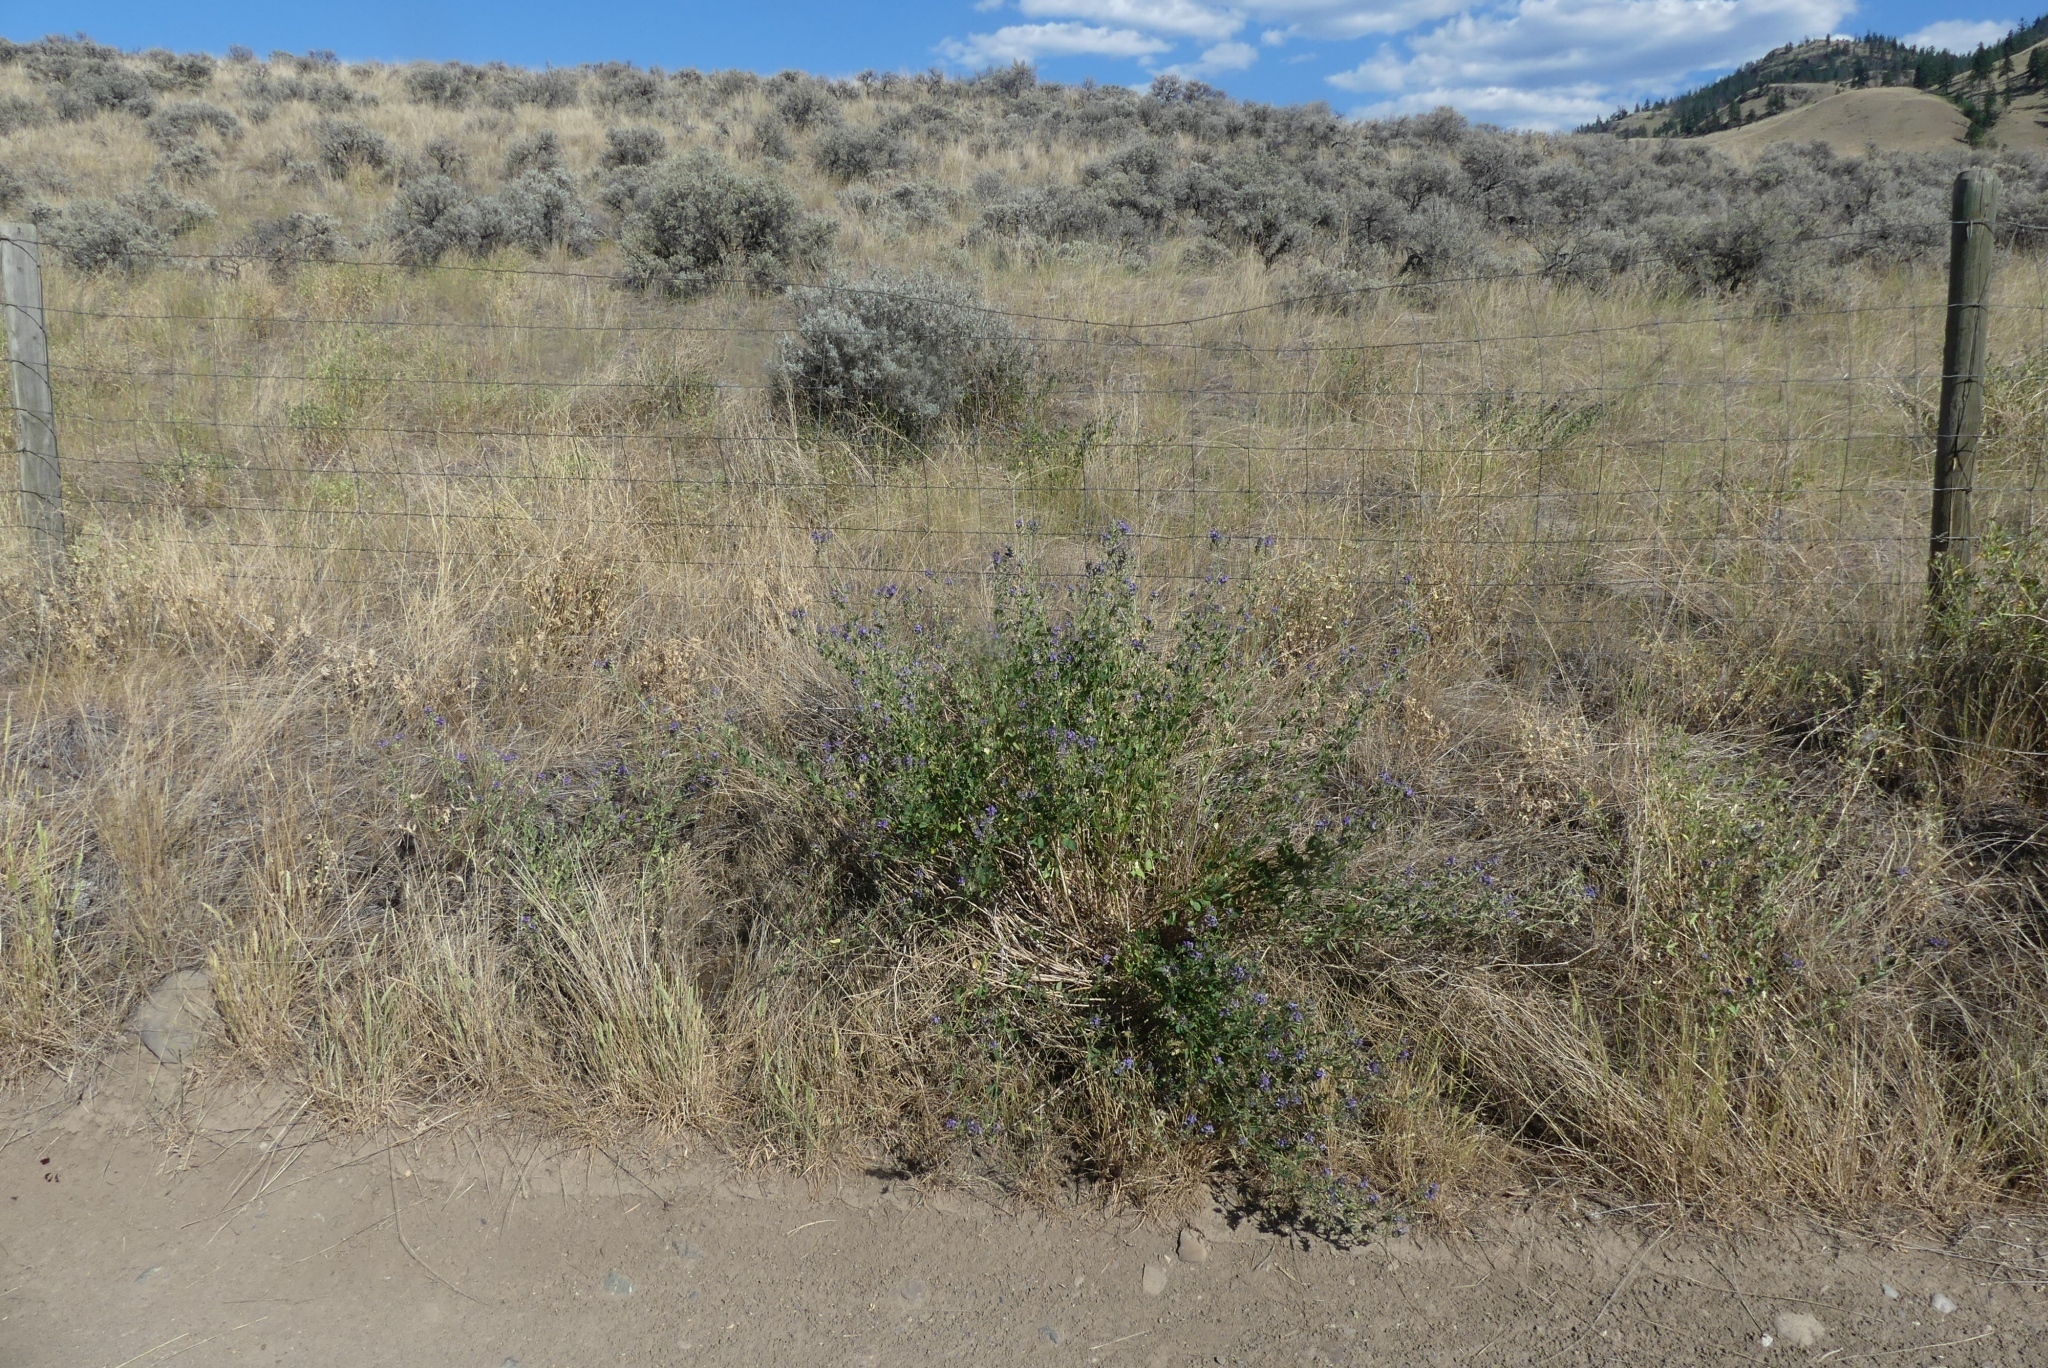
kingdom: Plantae
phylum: Tracheophyta
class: Magnoliopsida
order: Fabales
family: Fabaceae
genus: Medicago
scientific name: Medicago sativa
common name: Alfalfa
